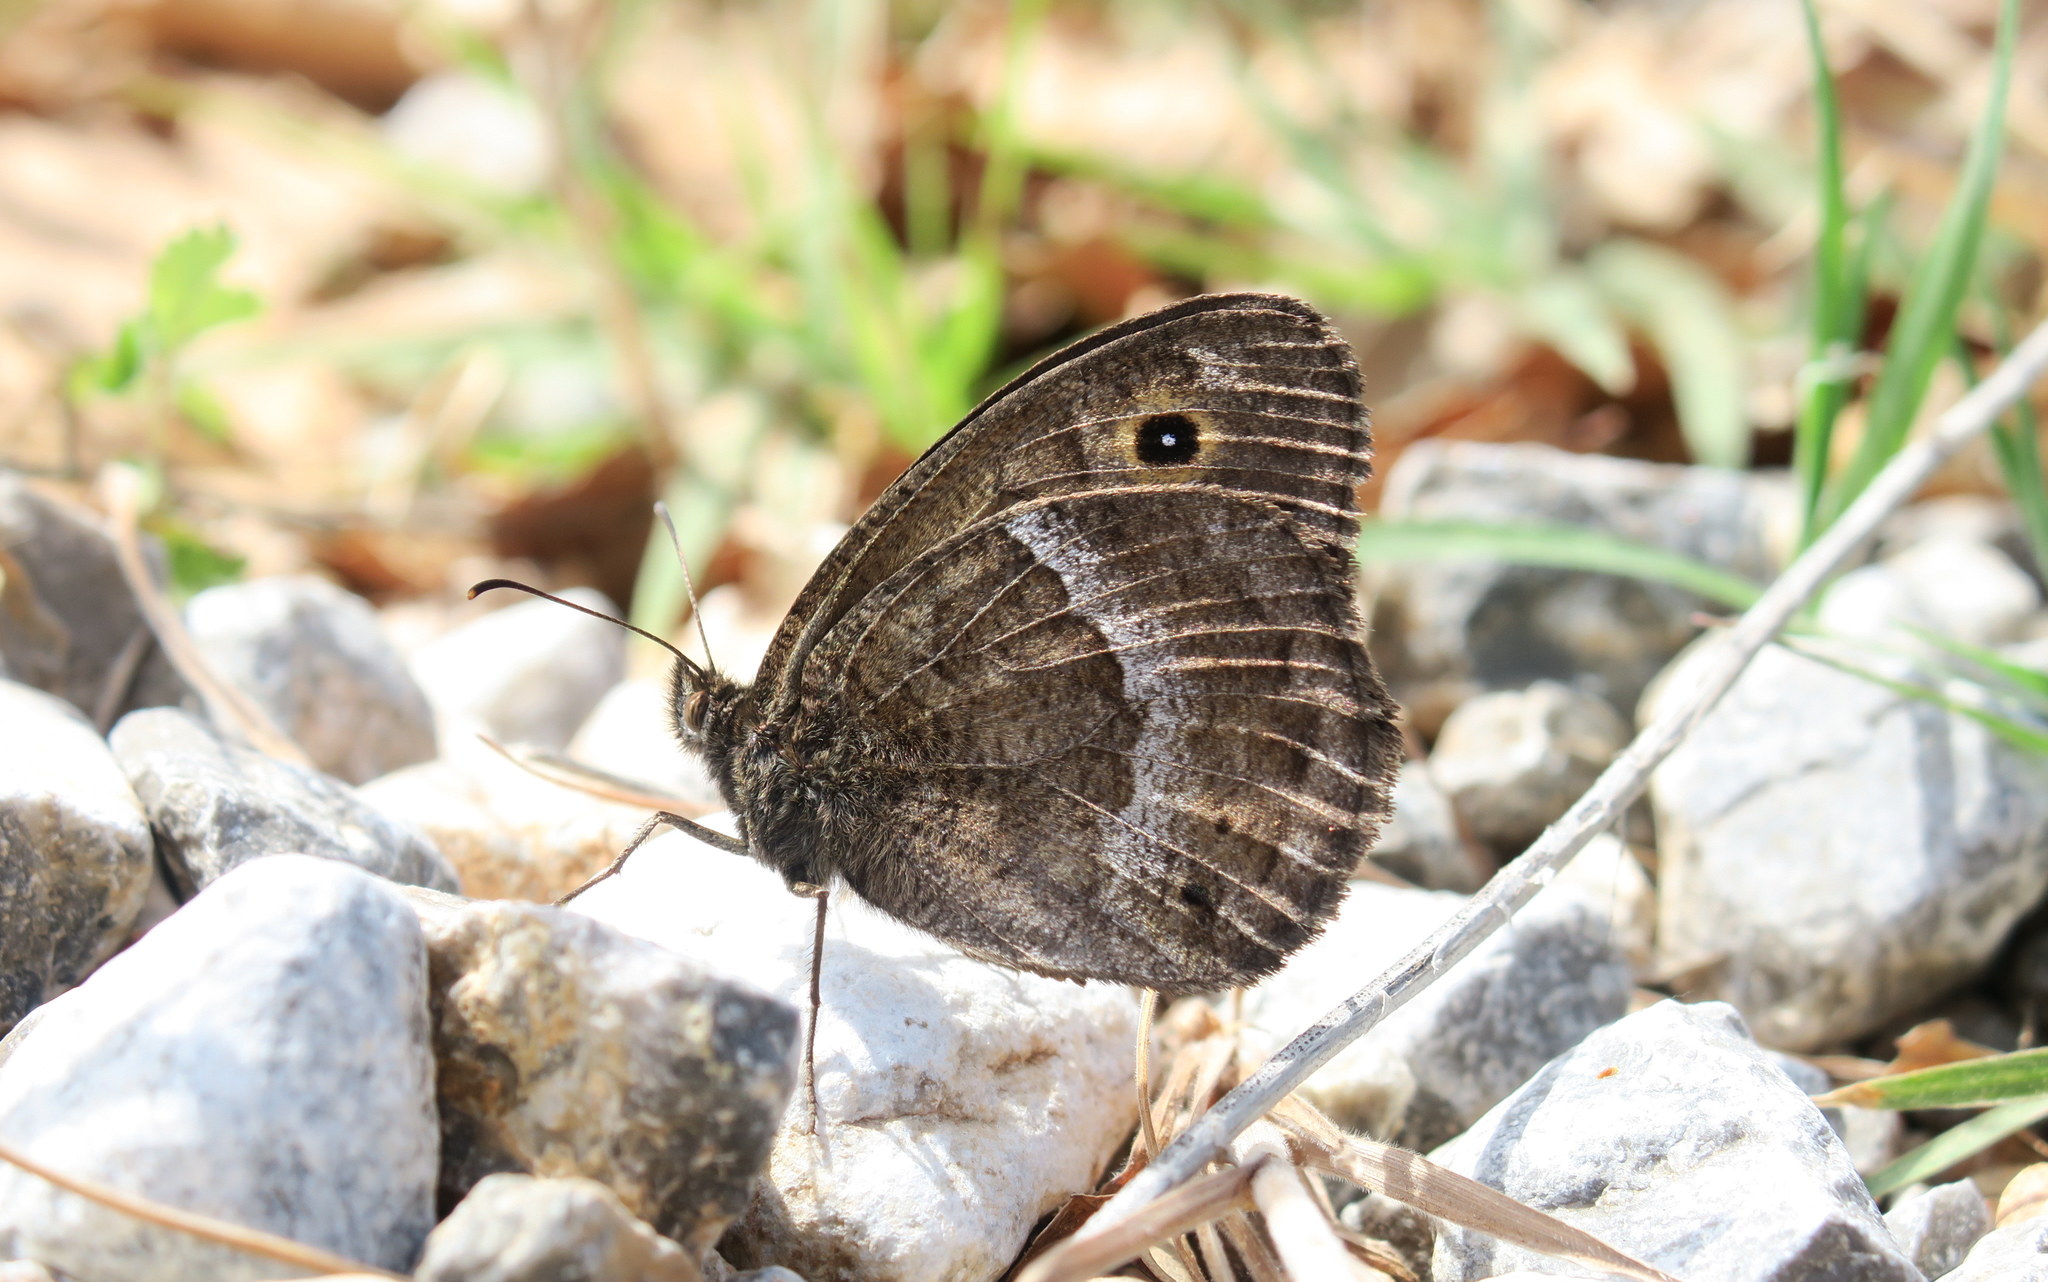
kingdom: Animalia
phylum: Arthropoda
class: Insecta
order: Lepidoptera
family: Nymphalidae
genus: Satyrus
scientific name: Satyrus ferula
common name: Great sooty satyr
